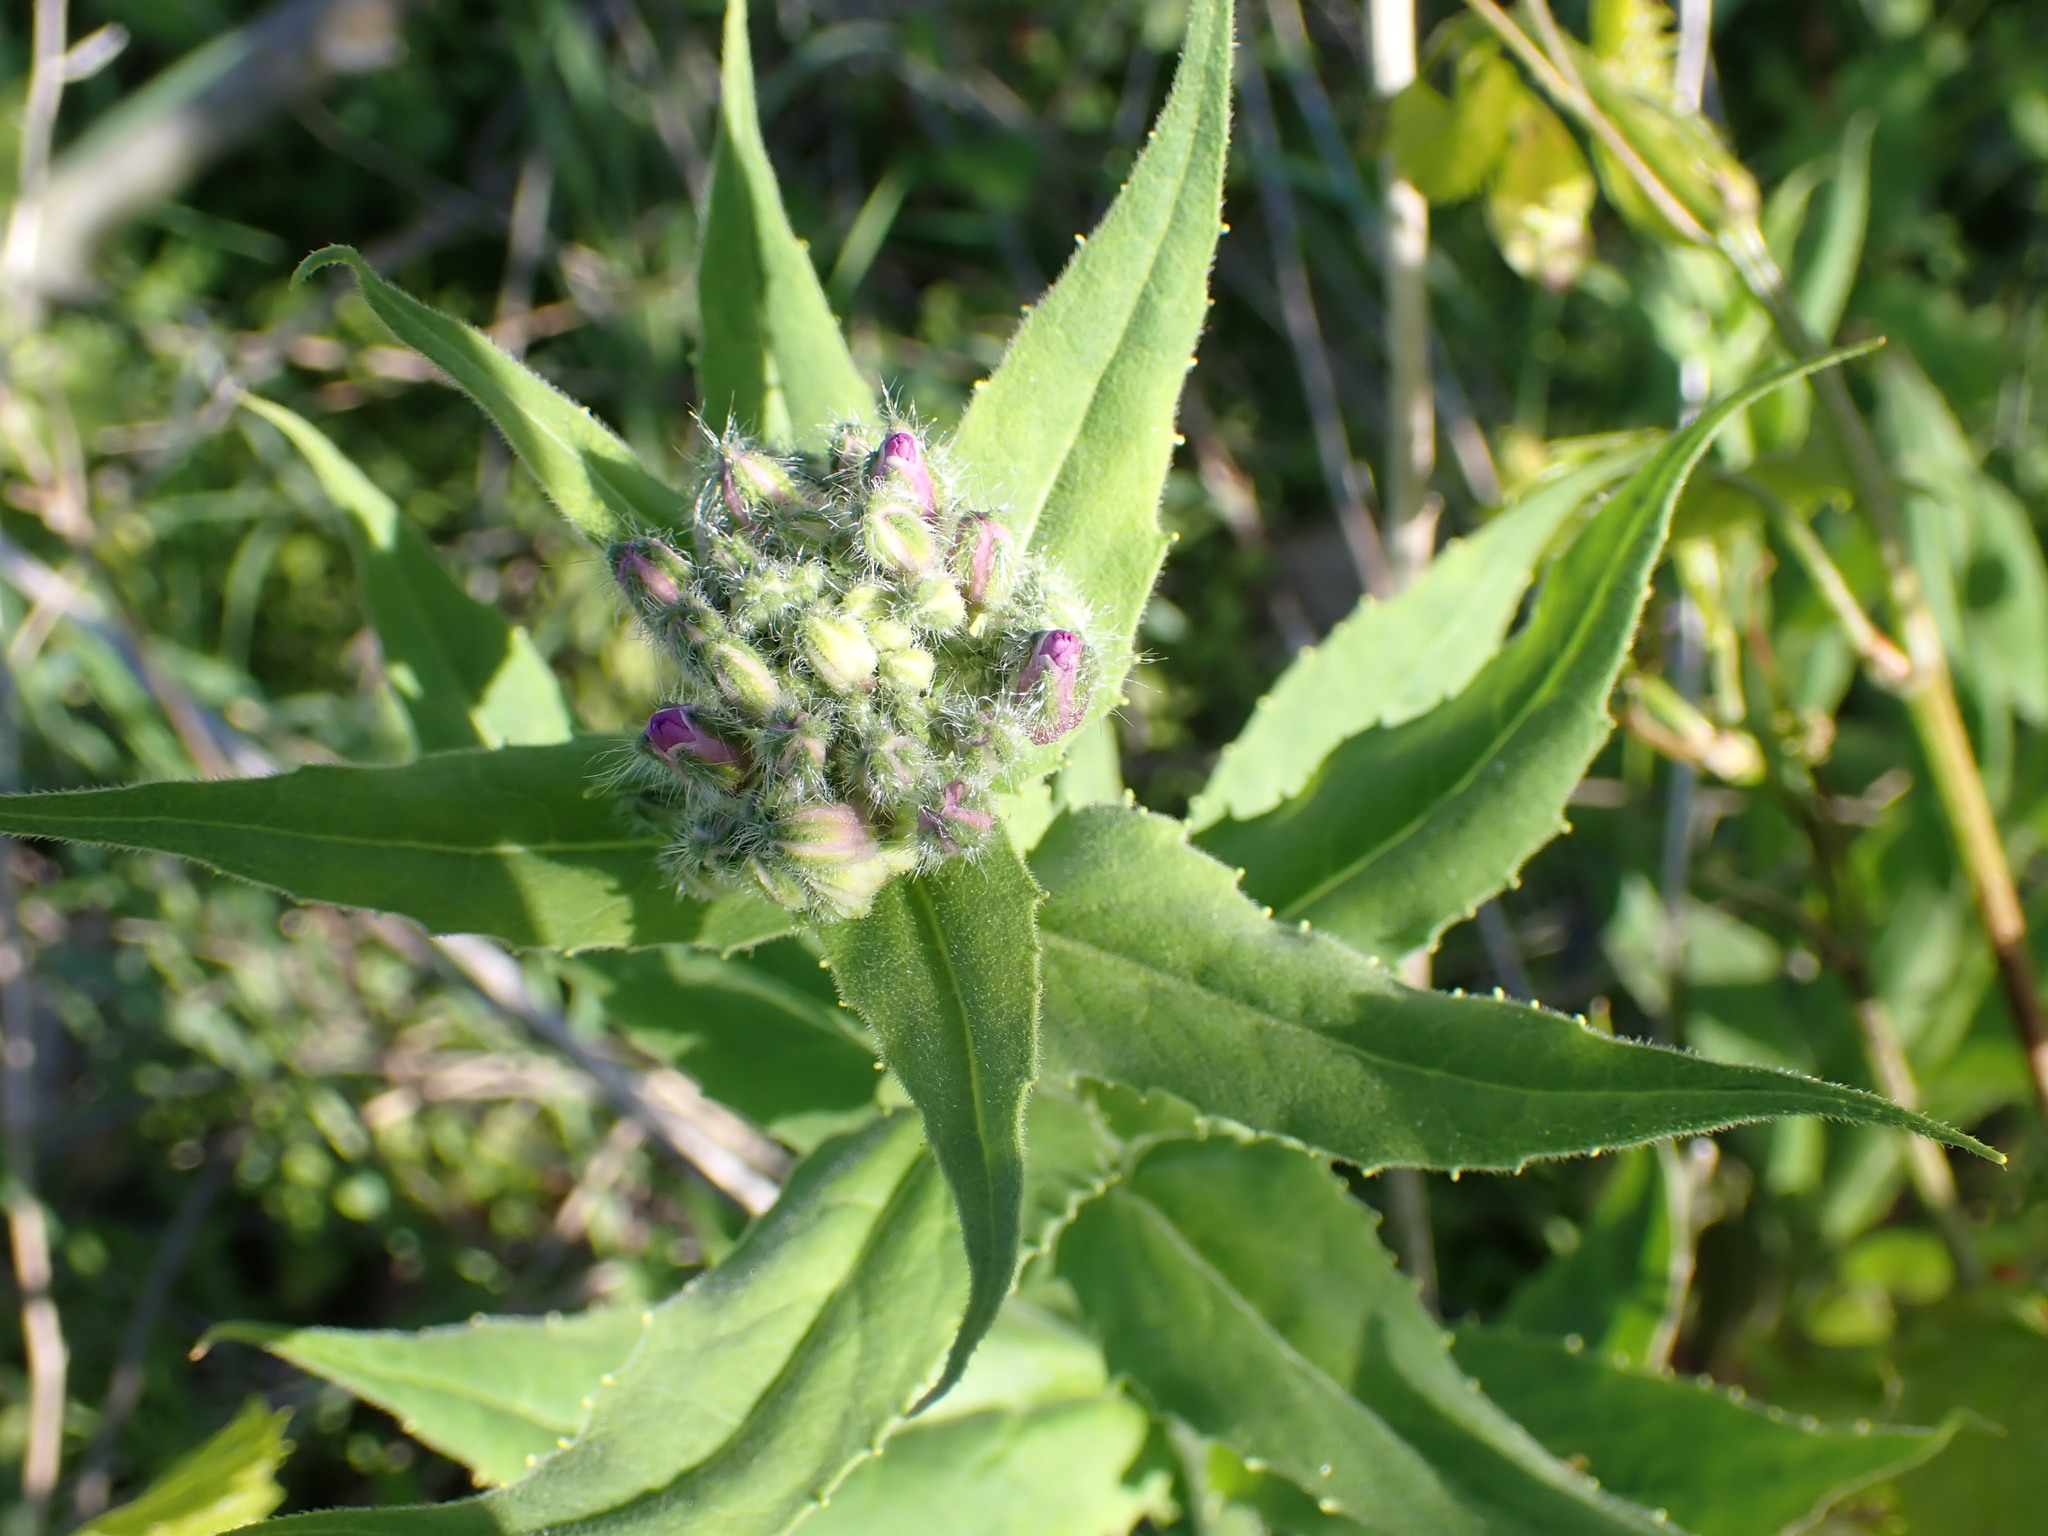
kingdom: Plantae
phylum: Tracheophyta
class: Magnoliopsida
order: Brassicales
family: Brassicaceae
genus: Hesperis
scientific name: Hesperis matronalis
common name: Dame's-violet
